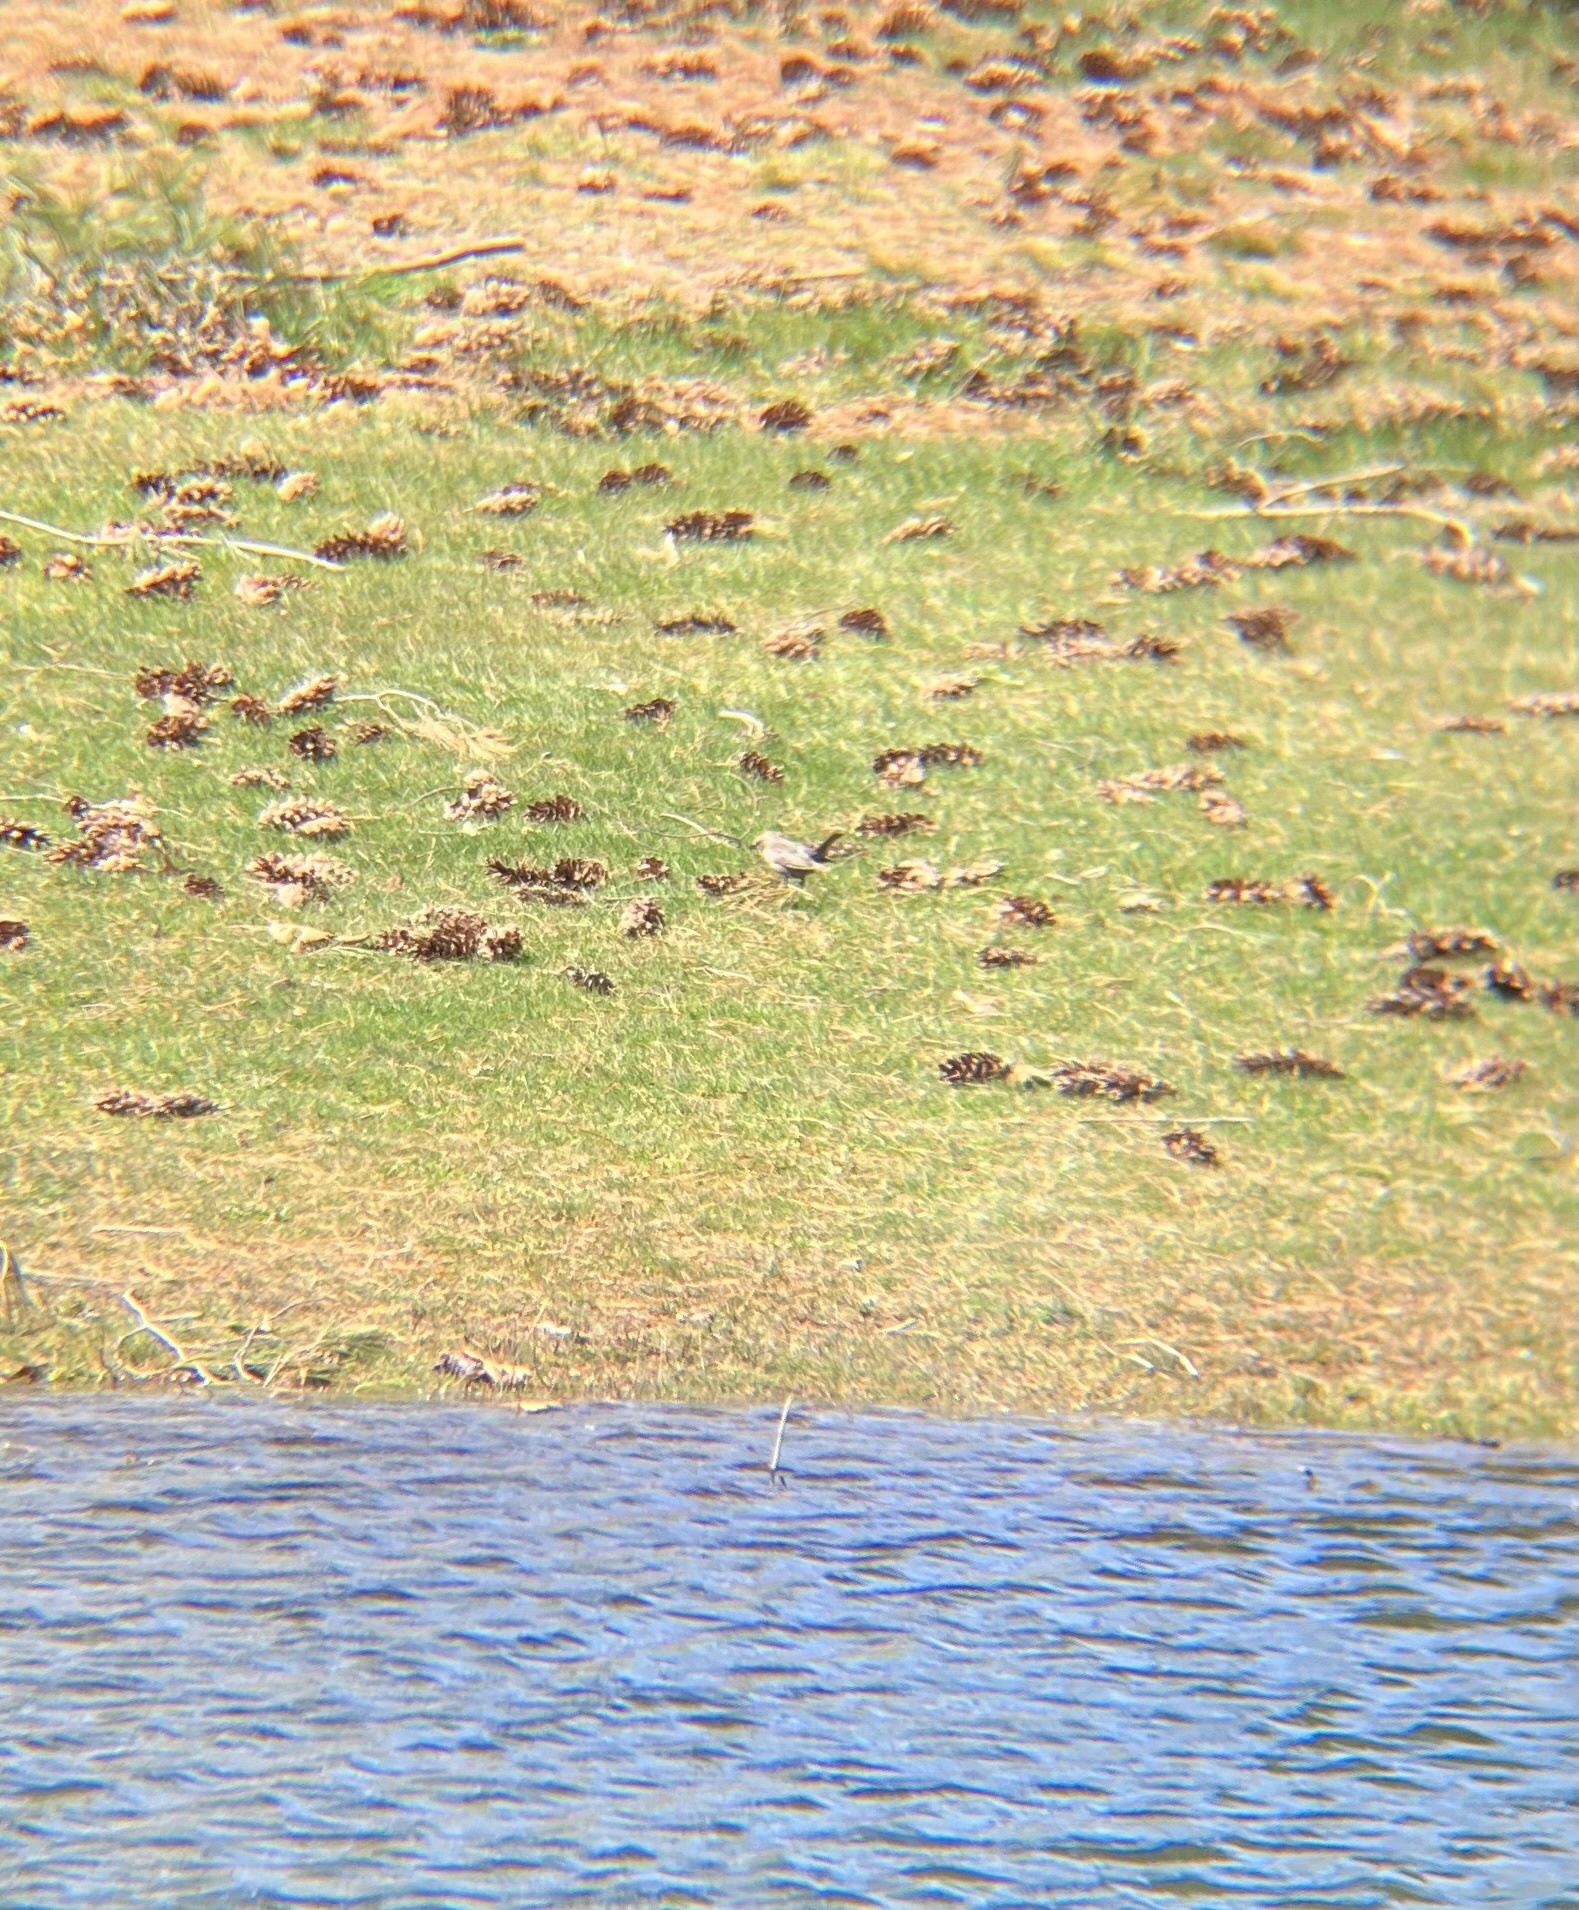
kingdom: Animalia
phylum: Chordata
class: Aves
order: Passeriformes
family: Icteridae
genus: Molothrus
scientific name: Molothrus ater
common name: Brown-headed cowbird
